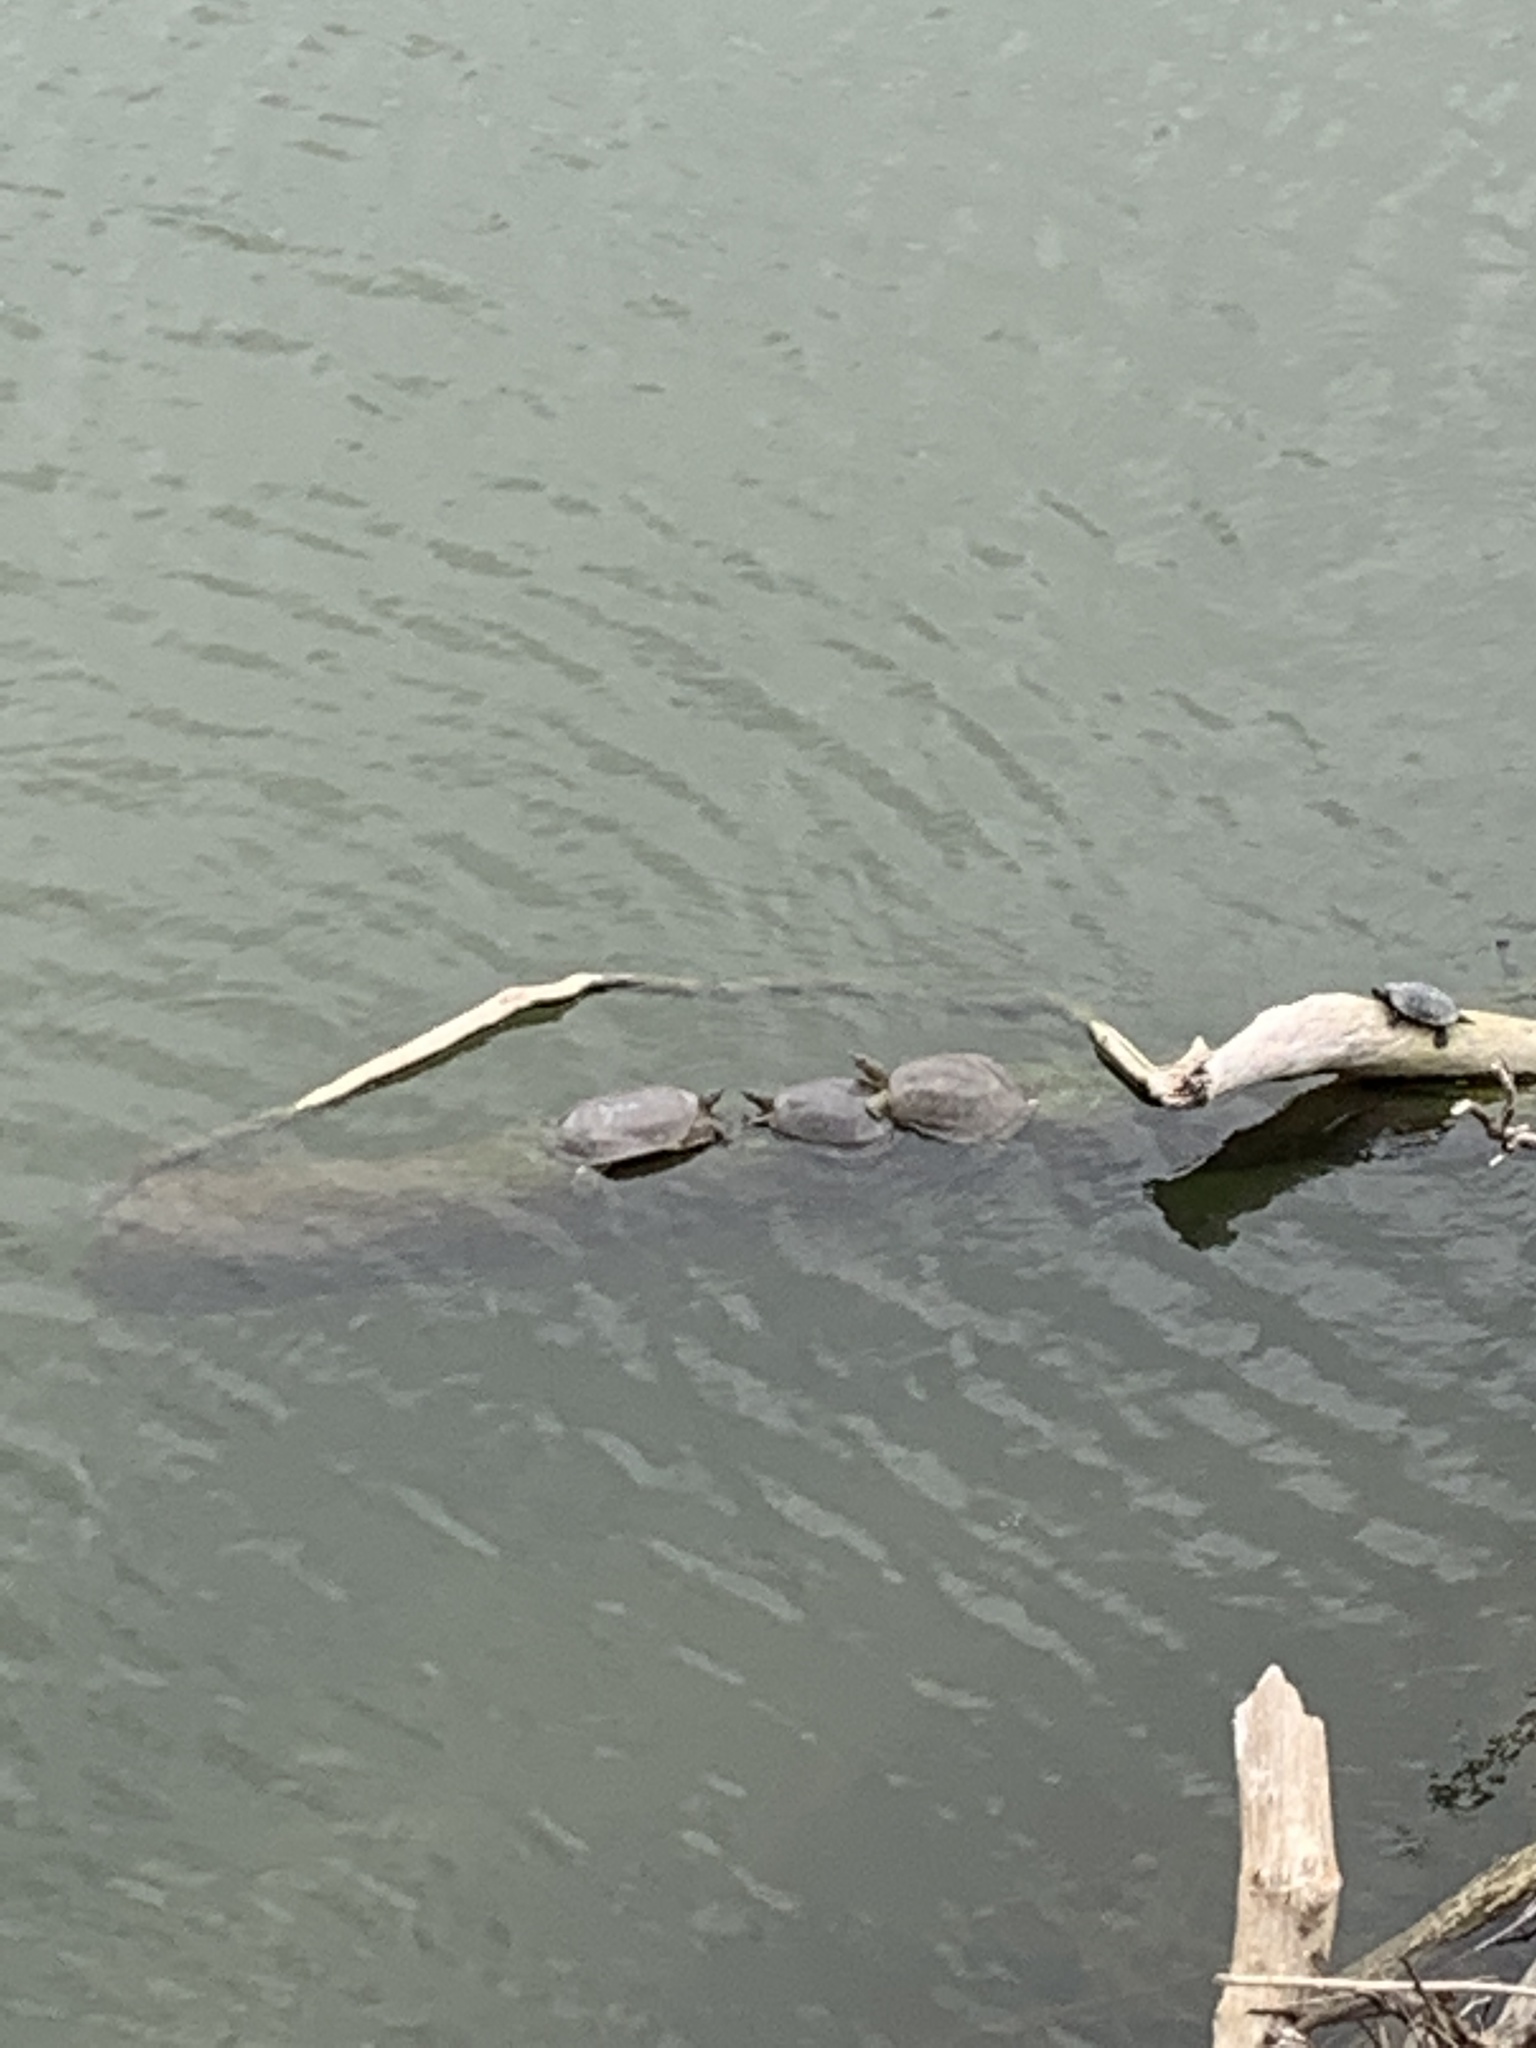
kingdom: Animalia
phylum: Chordata
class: Testudines
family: Trionychidae
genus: Apalone
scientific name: Apalone spinifera
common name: Spiny softshell turtle
